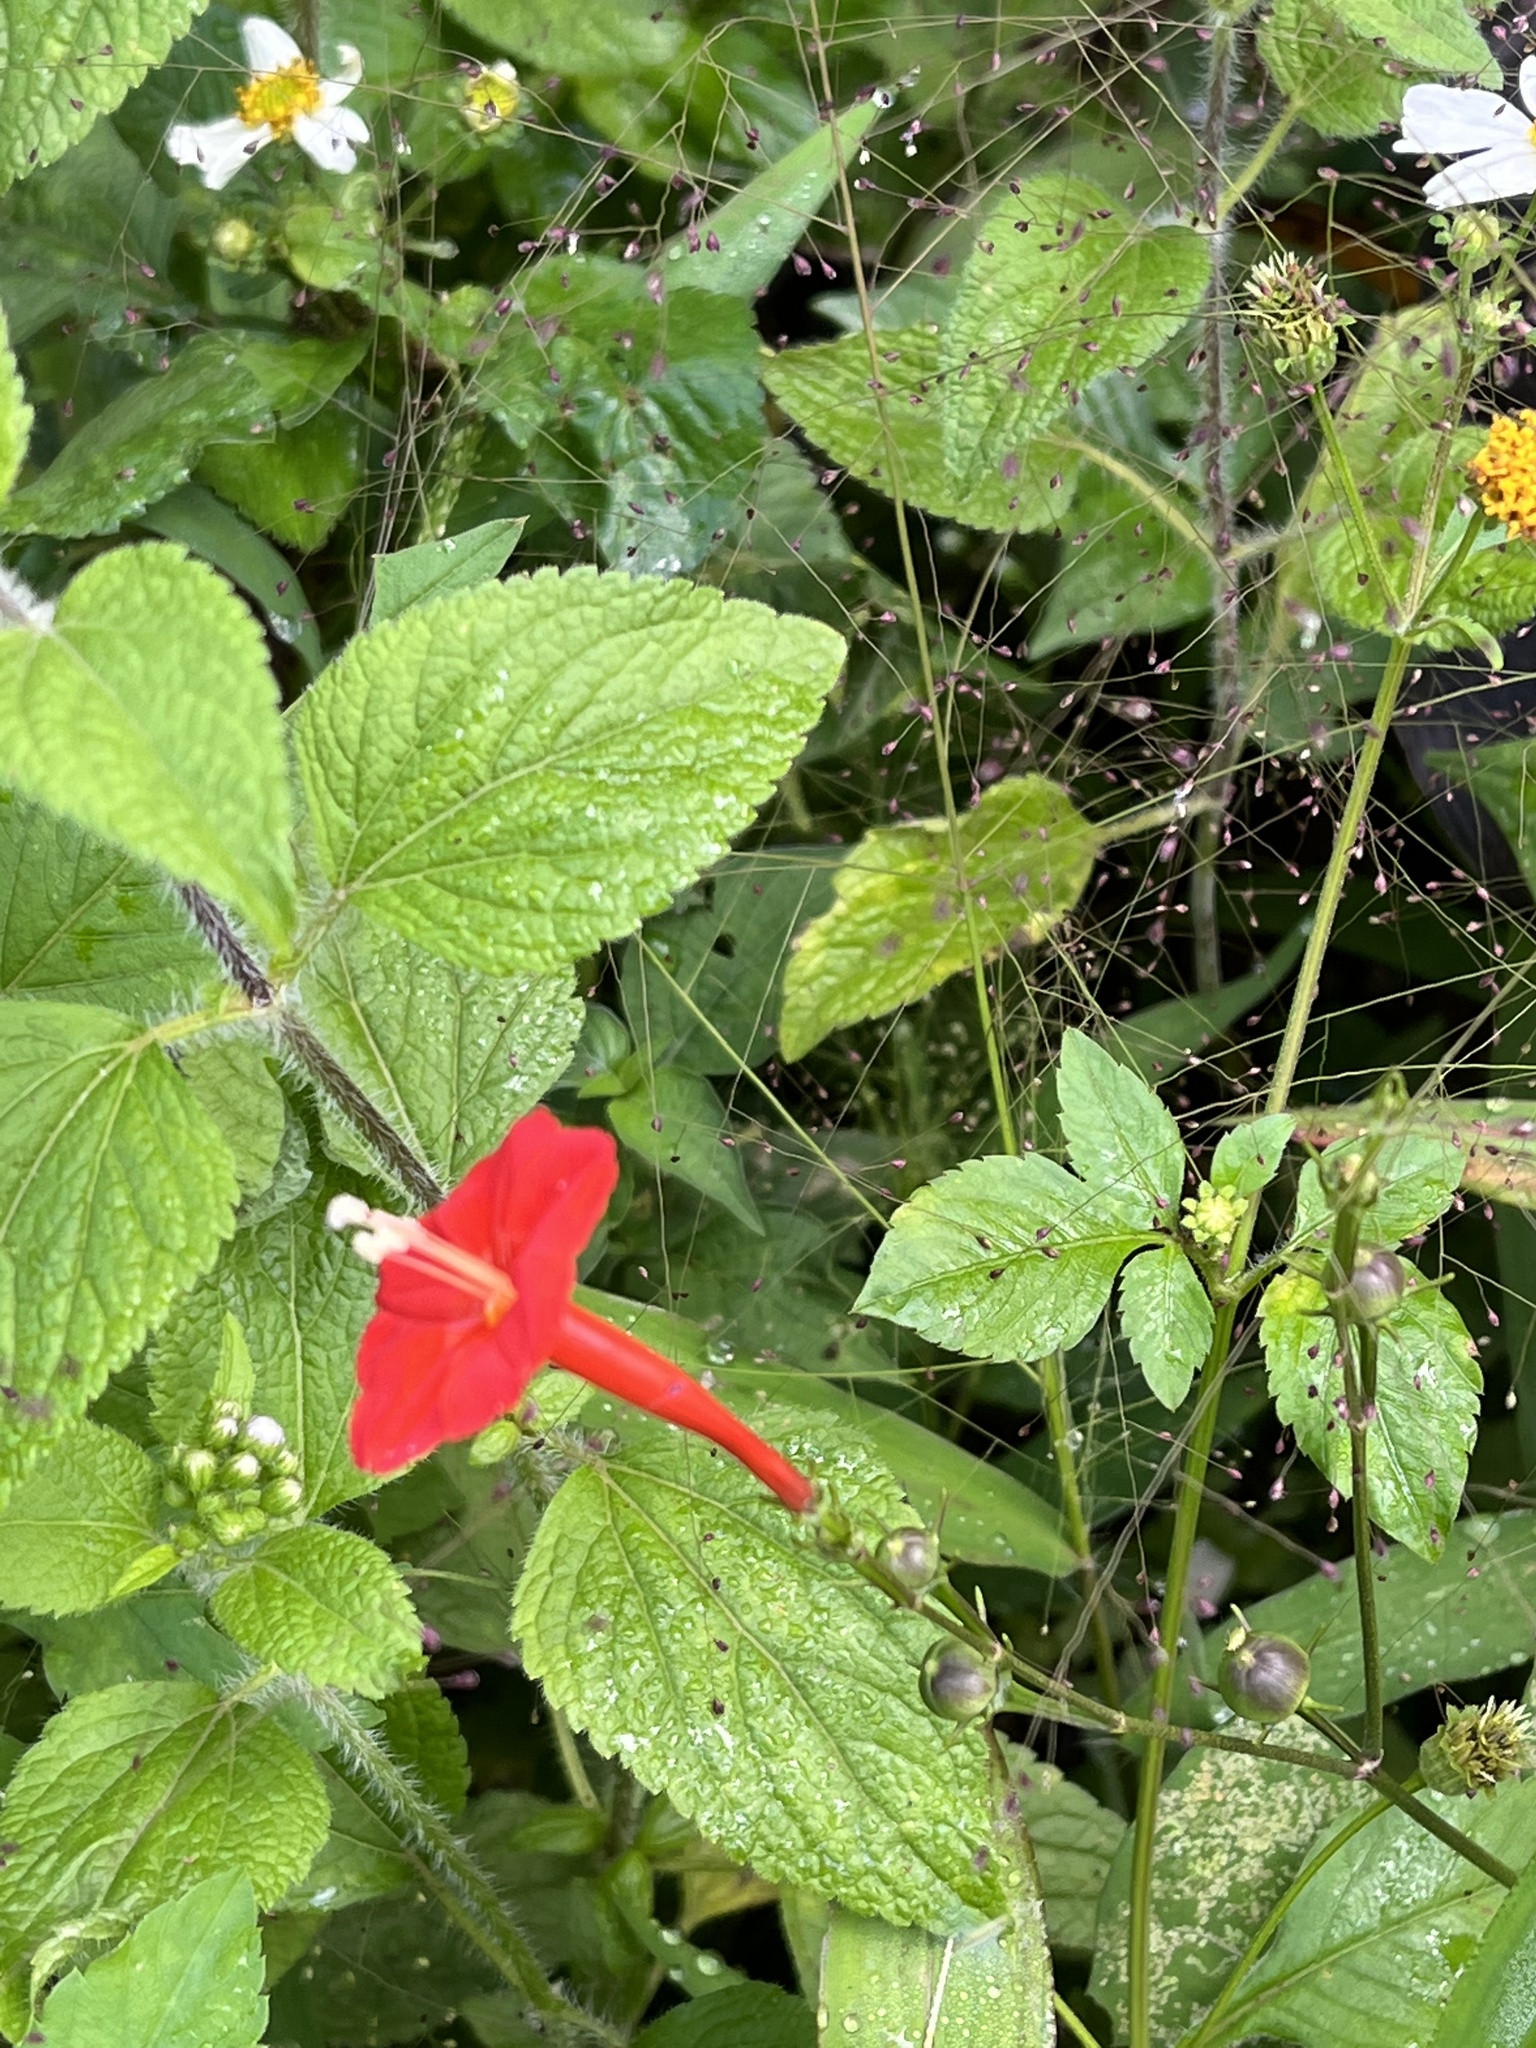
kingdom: Plantae
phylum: Tracheophyta
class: Magnoliopsida
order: Solanales
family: Convolvulaceae
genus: Ipomoea
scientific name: Ipomoea hederifolia
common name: Ivy-leaf morning-glory
